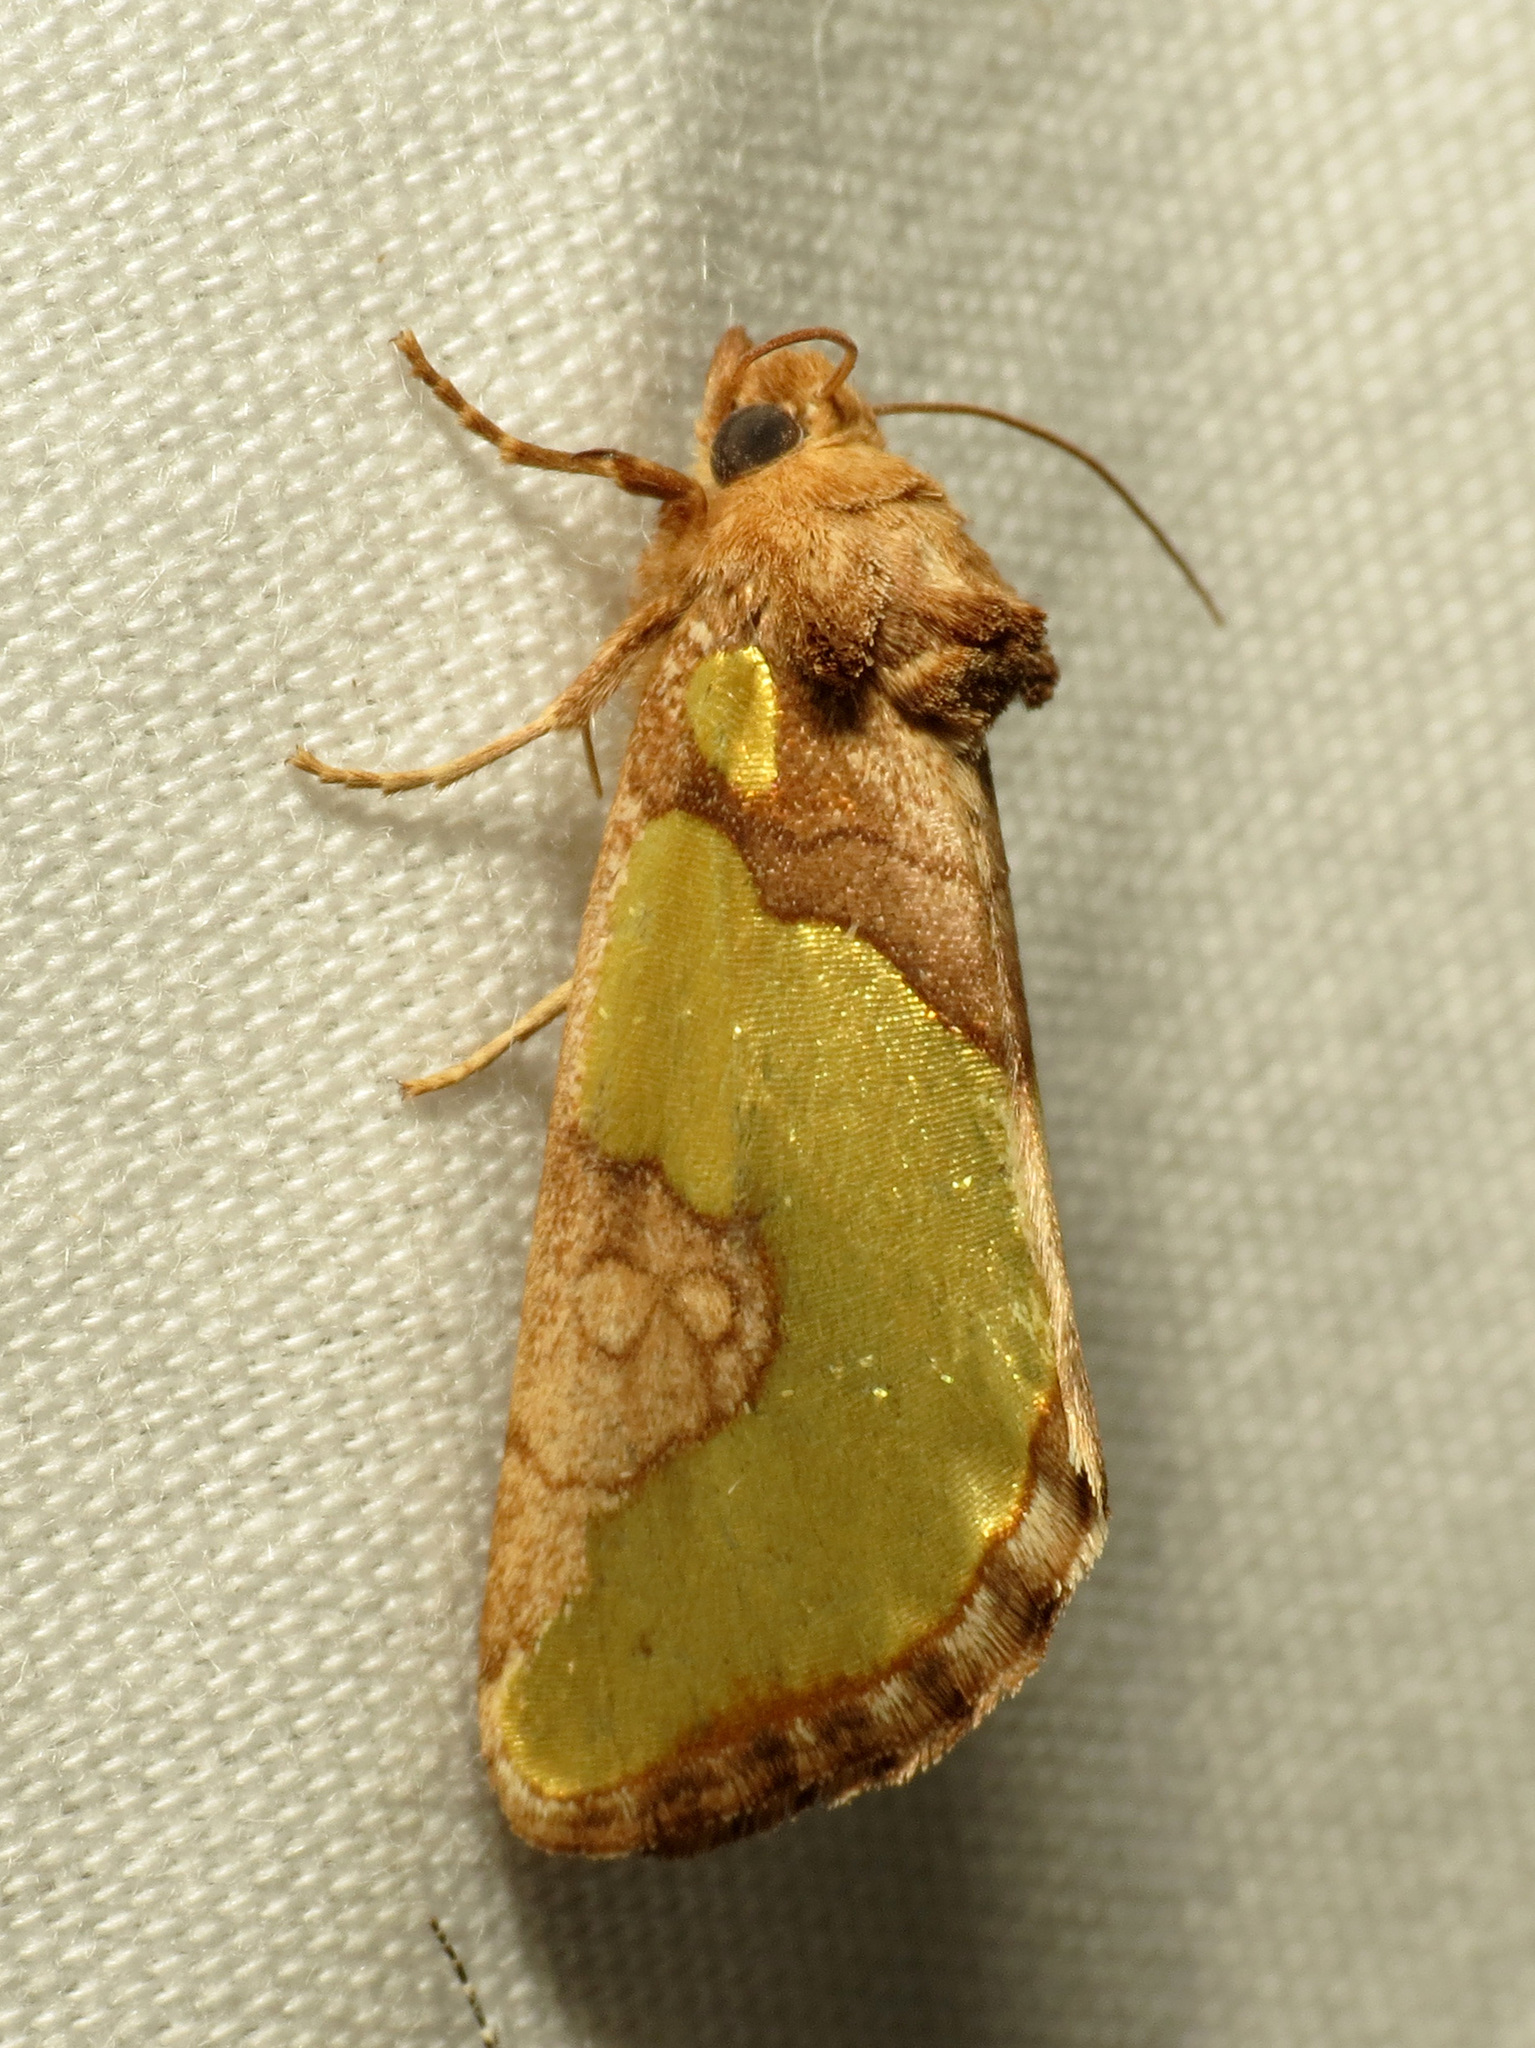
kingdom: Animalia
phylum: Arthropoda
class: Insecta
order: Lepidoptera
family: Noctuidae
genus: Chalcopasta
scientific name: Chalcopasta howardi
